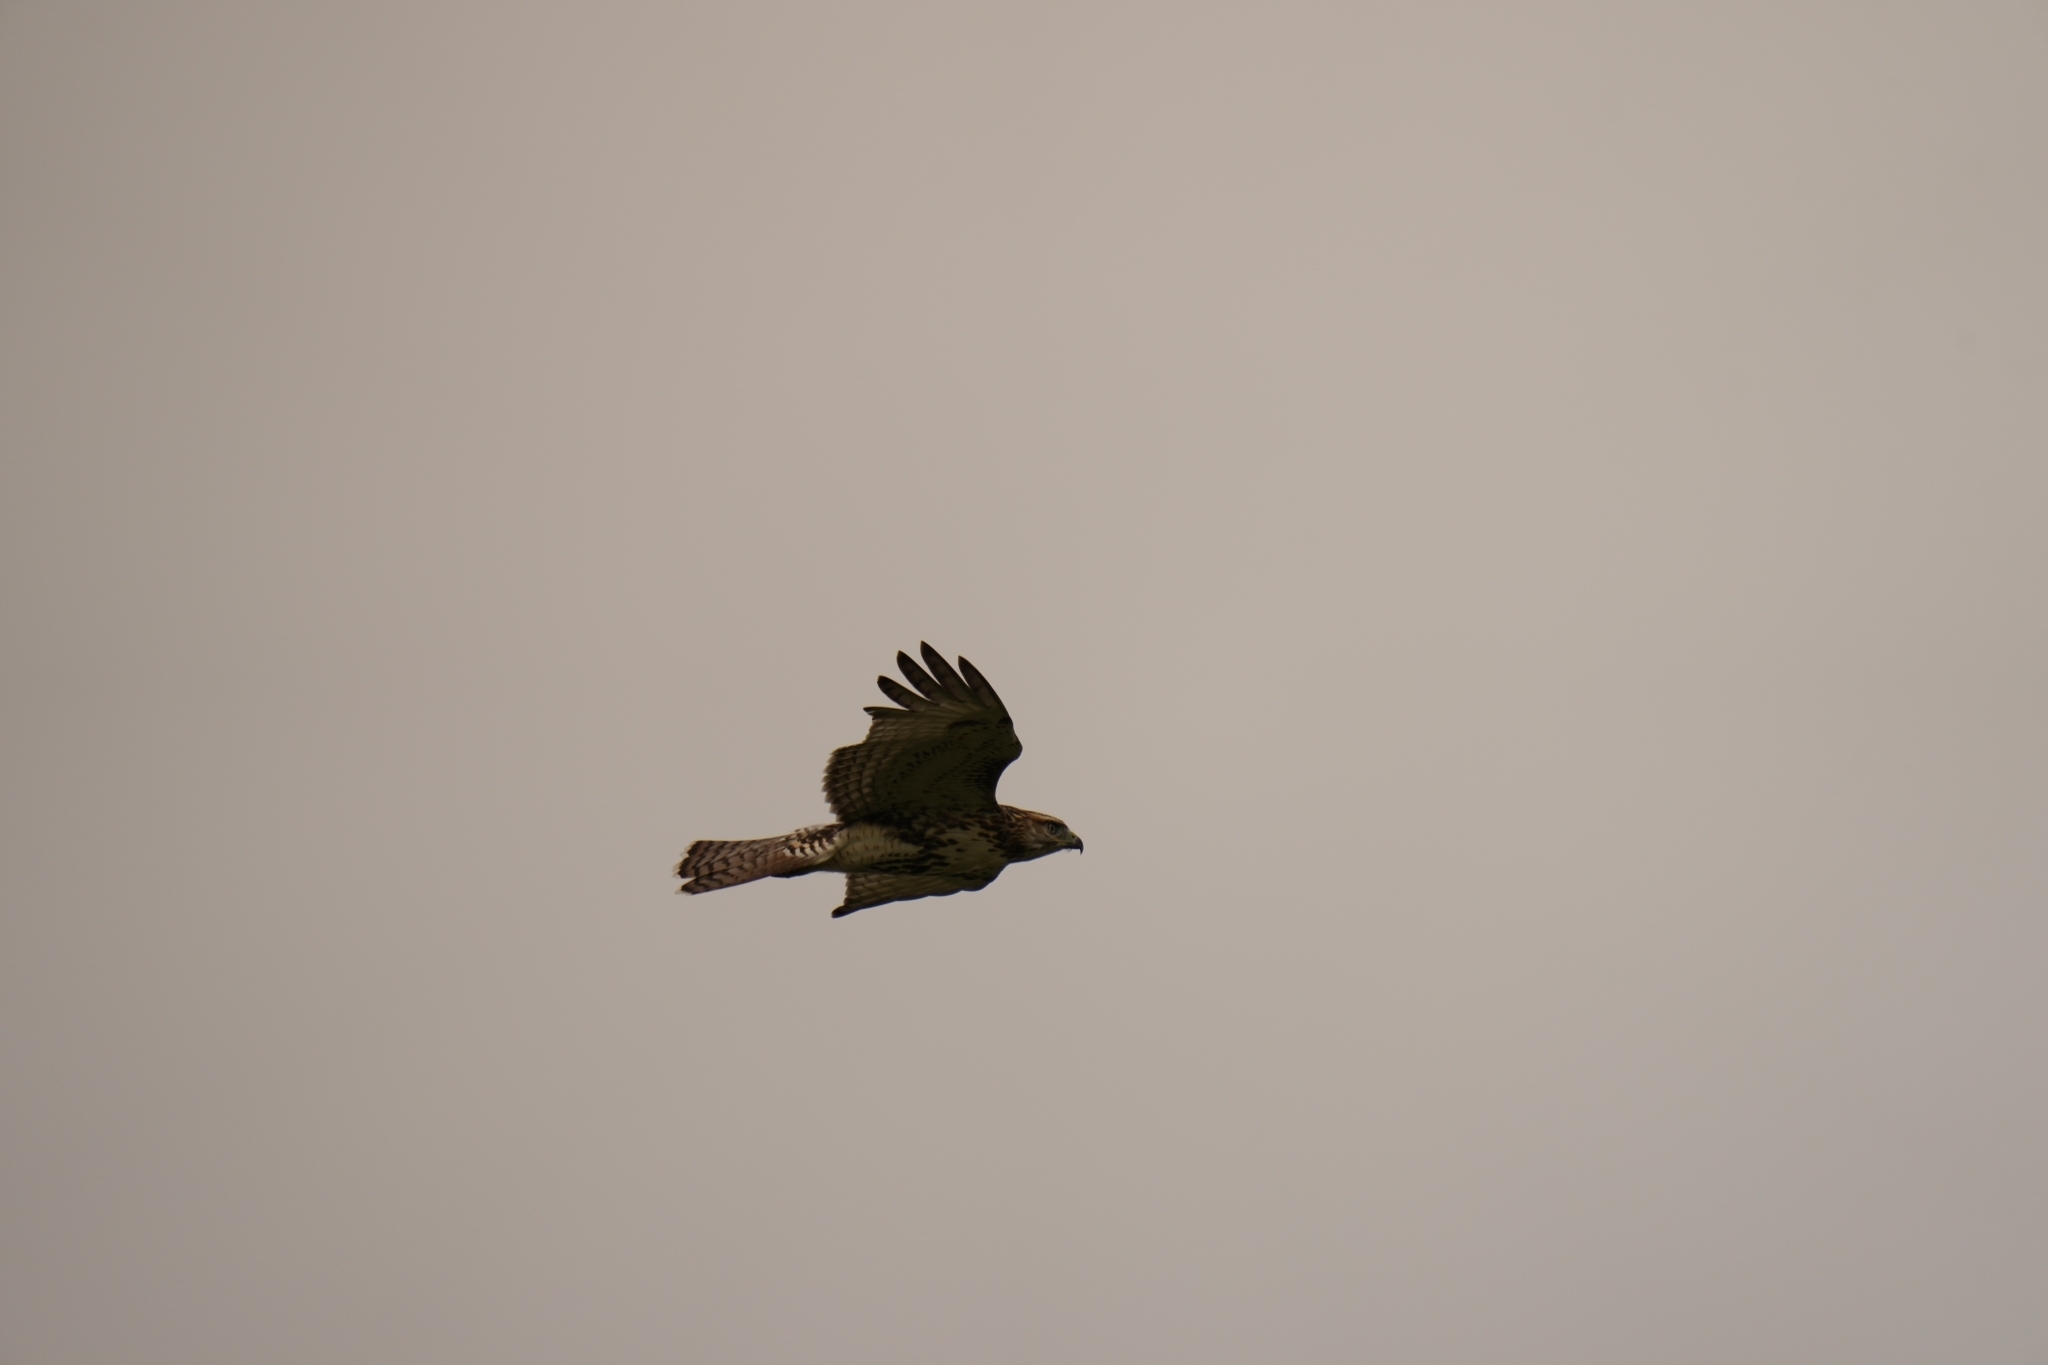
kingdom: Animalia
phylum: Chordata
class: Aves
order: Accipitriformes
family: Accipitridae
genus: Buteo
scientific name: Buteo jamaicensis
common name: Red-tailed hawk
